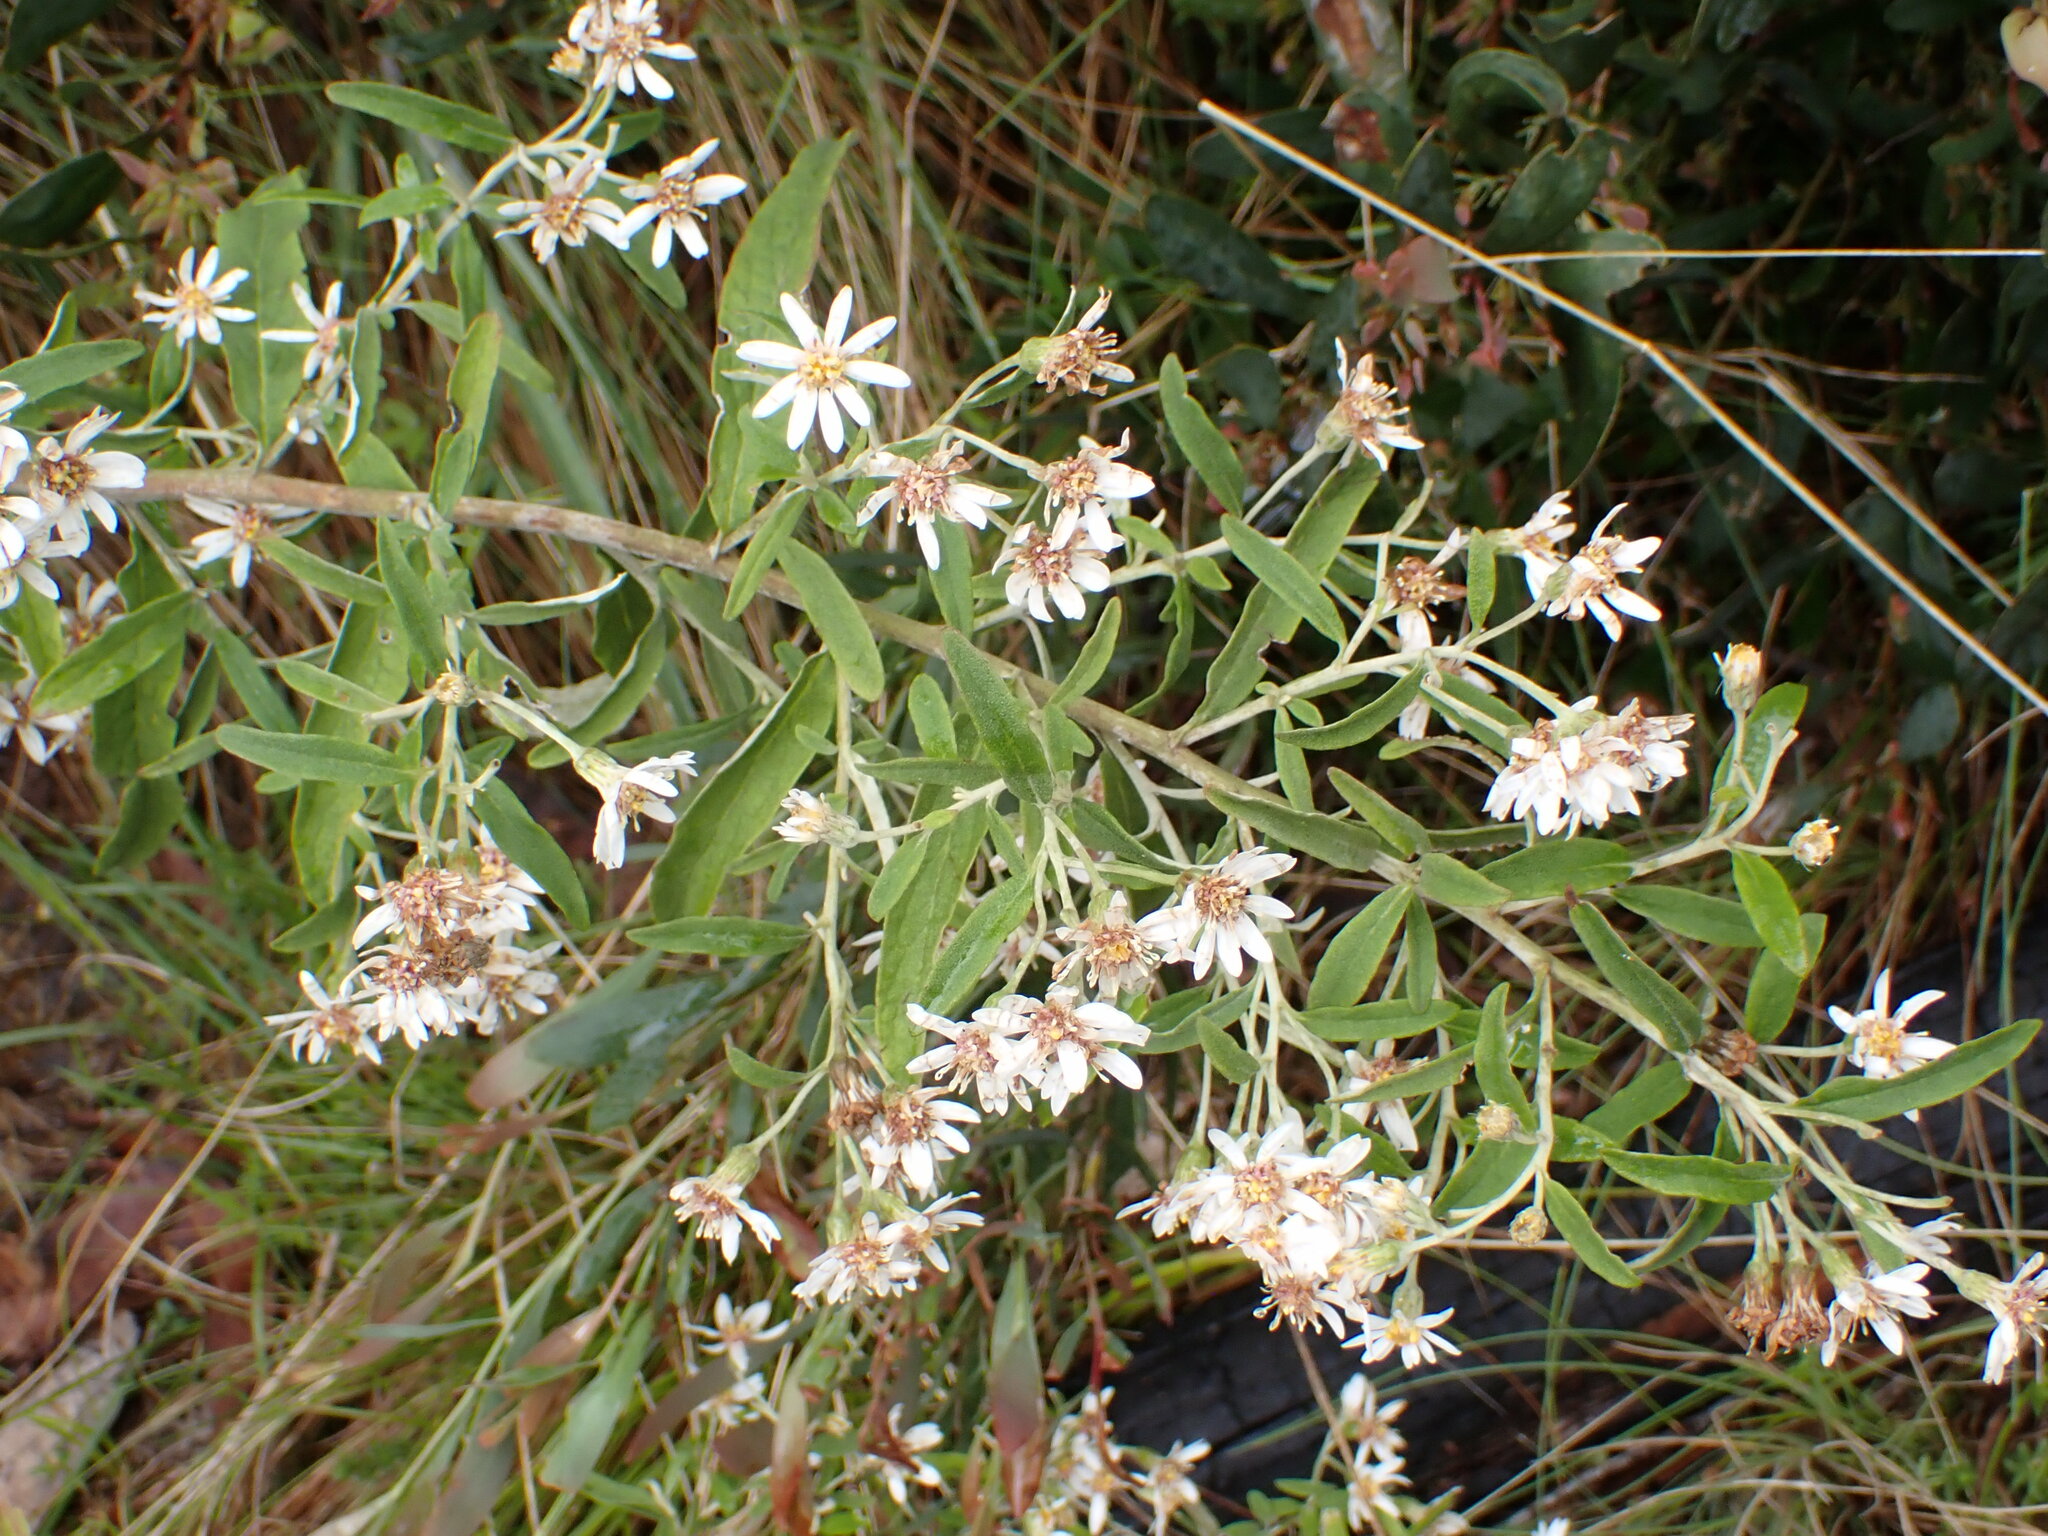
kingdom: Plantae
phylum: Tracheophyta
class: Magnoliopsida
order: Asterales
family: Asteraceae
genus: Olearia
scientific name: Olearia lirata
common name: Dusty daisybush
